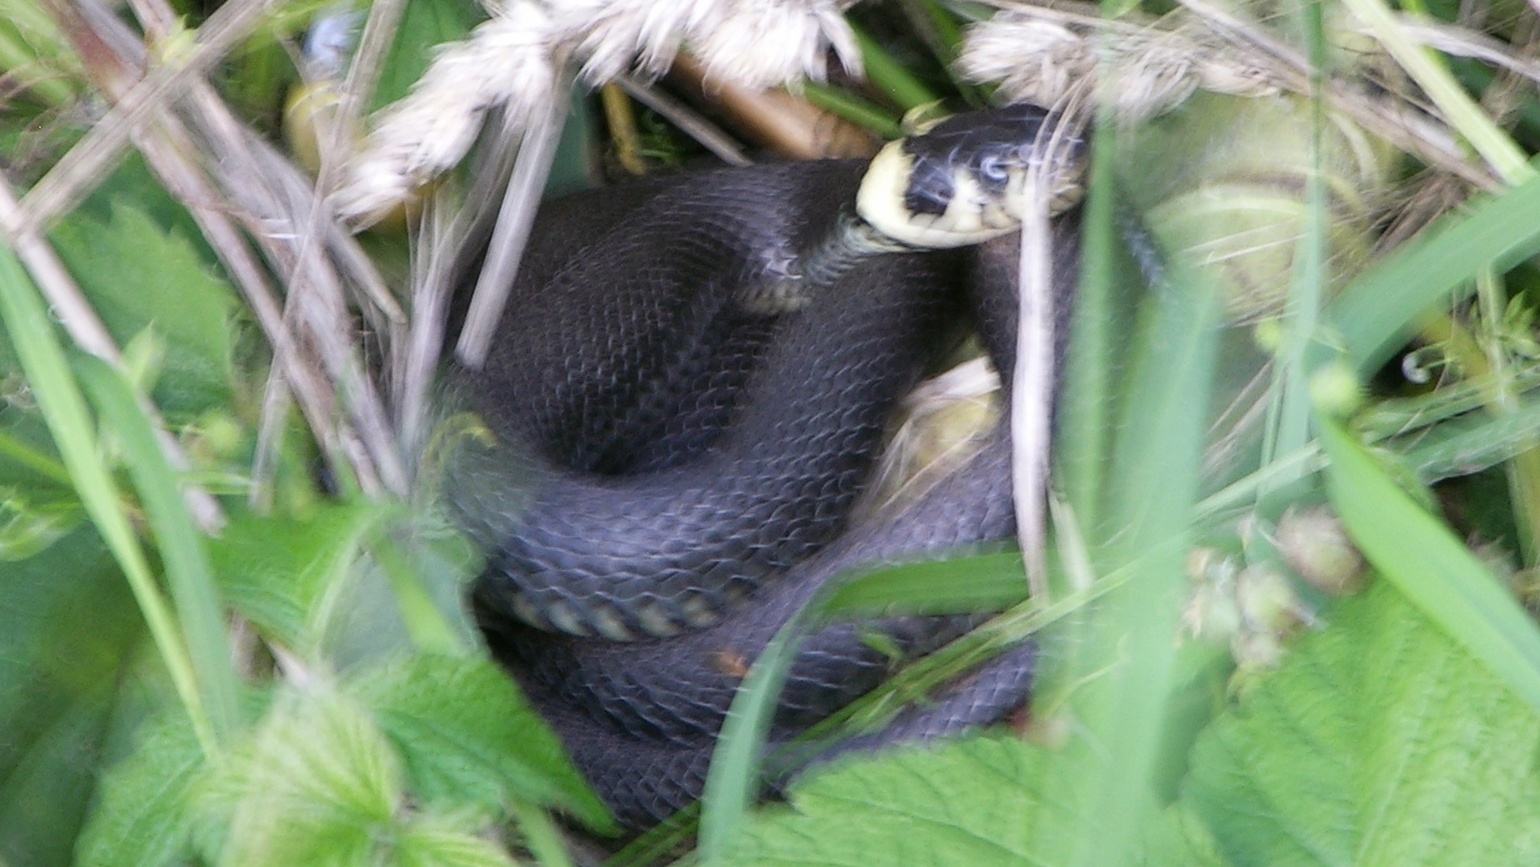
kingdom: Animalia
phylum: Chordata
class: Squamata
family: Colubridae
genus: Natrix
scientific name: Natrix natrix
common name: Grass snake
